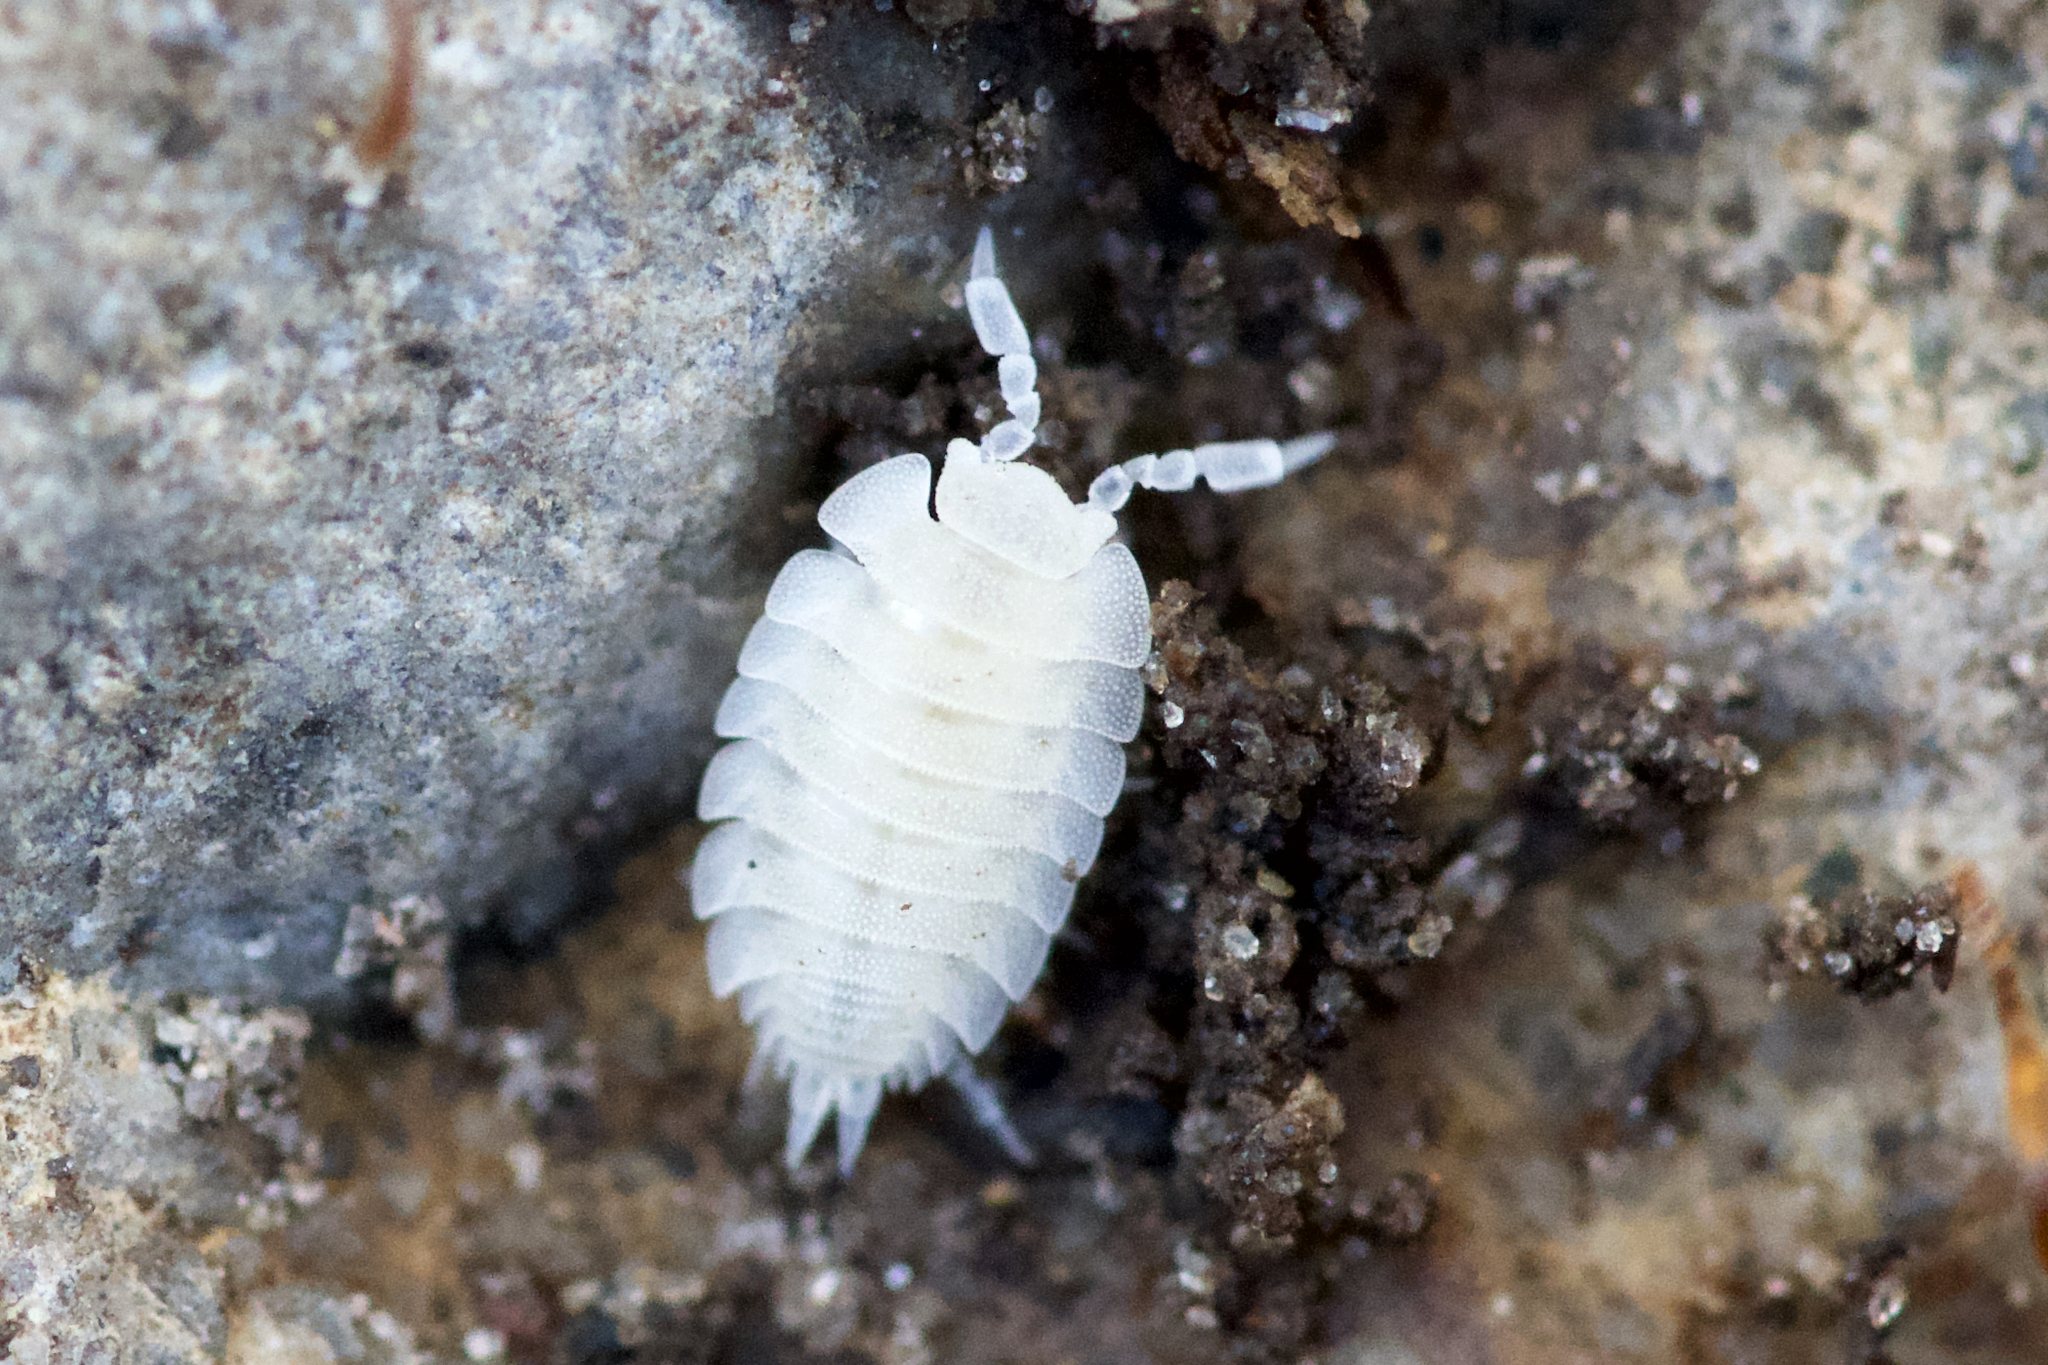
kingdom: Animalia
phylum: Arthropoda
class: Malacostraca
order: Isopoda
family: Platyarthridae
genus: Platyarthrus
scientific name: Platyarthrus hoffmannseggii
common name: Ant woodlouse
